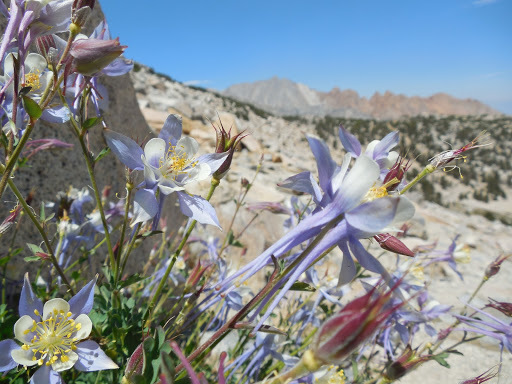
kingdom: Plantae
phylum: Tracheophyta
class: Magnoliopsida
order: Ranunculales
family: Ranunculaceae
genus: Aquilegia
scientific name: Aquilegia pubescens
